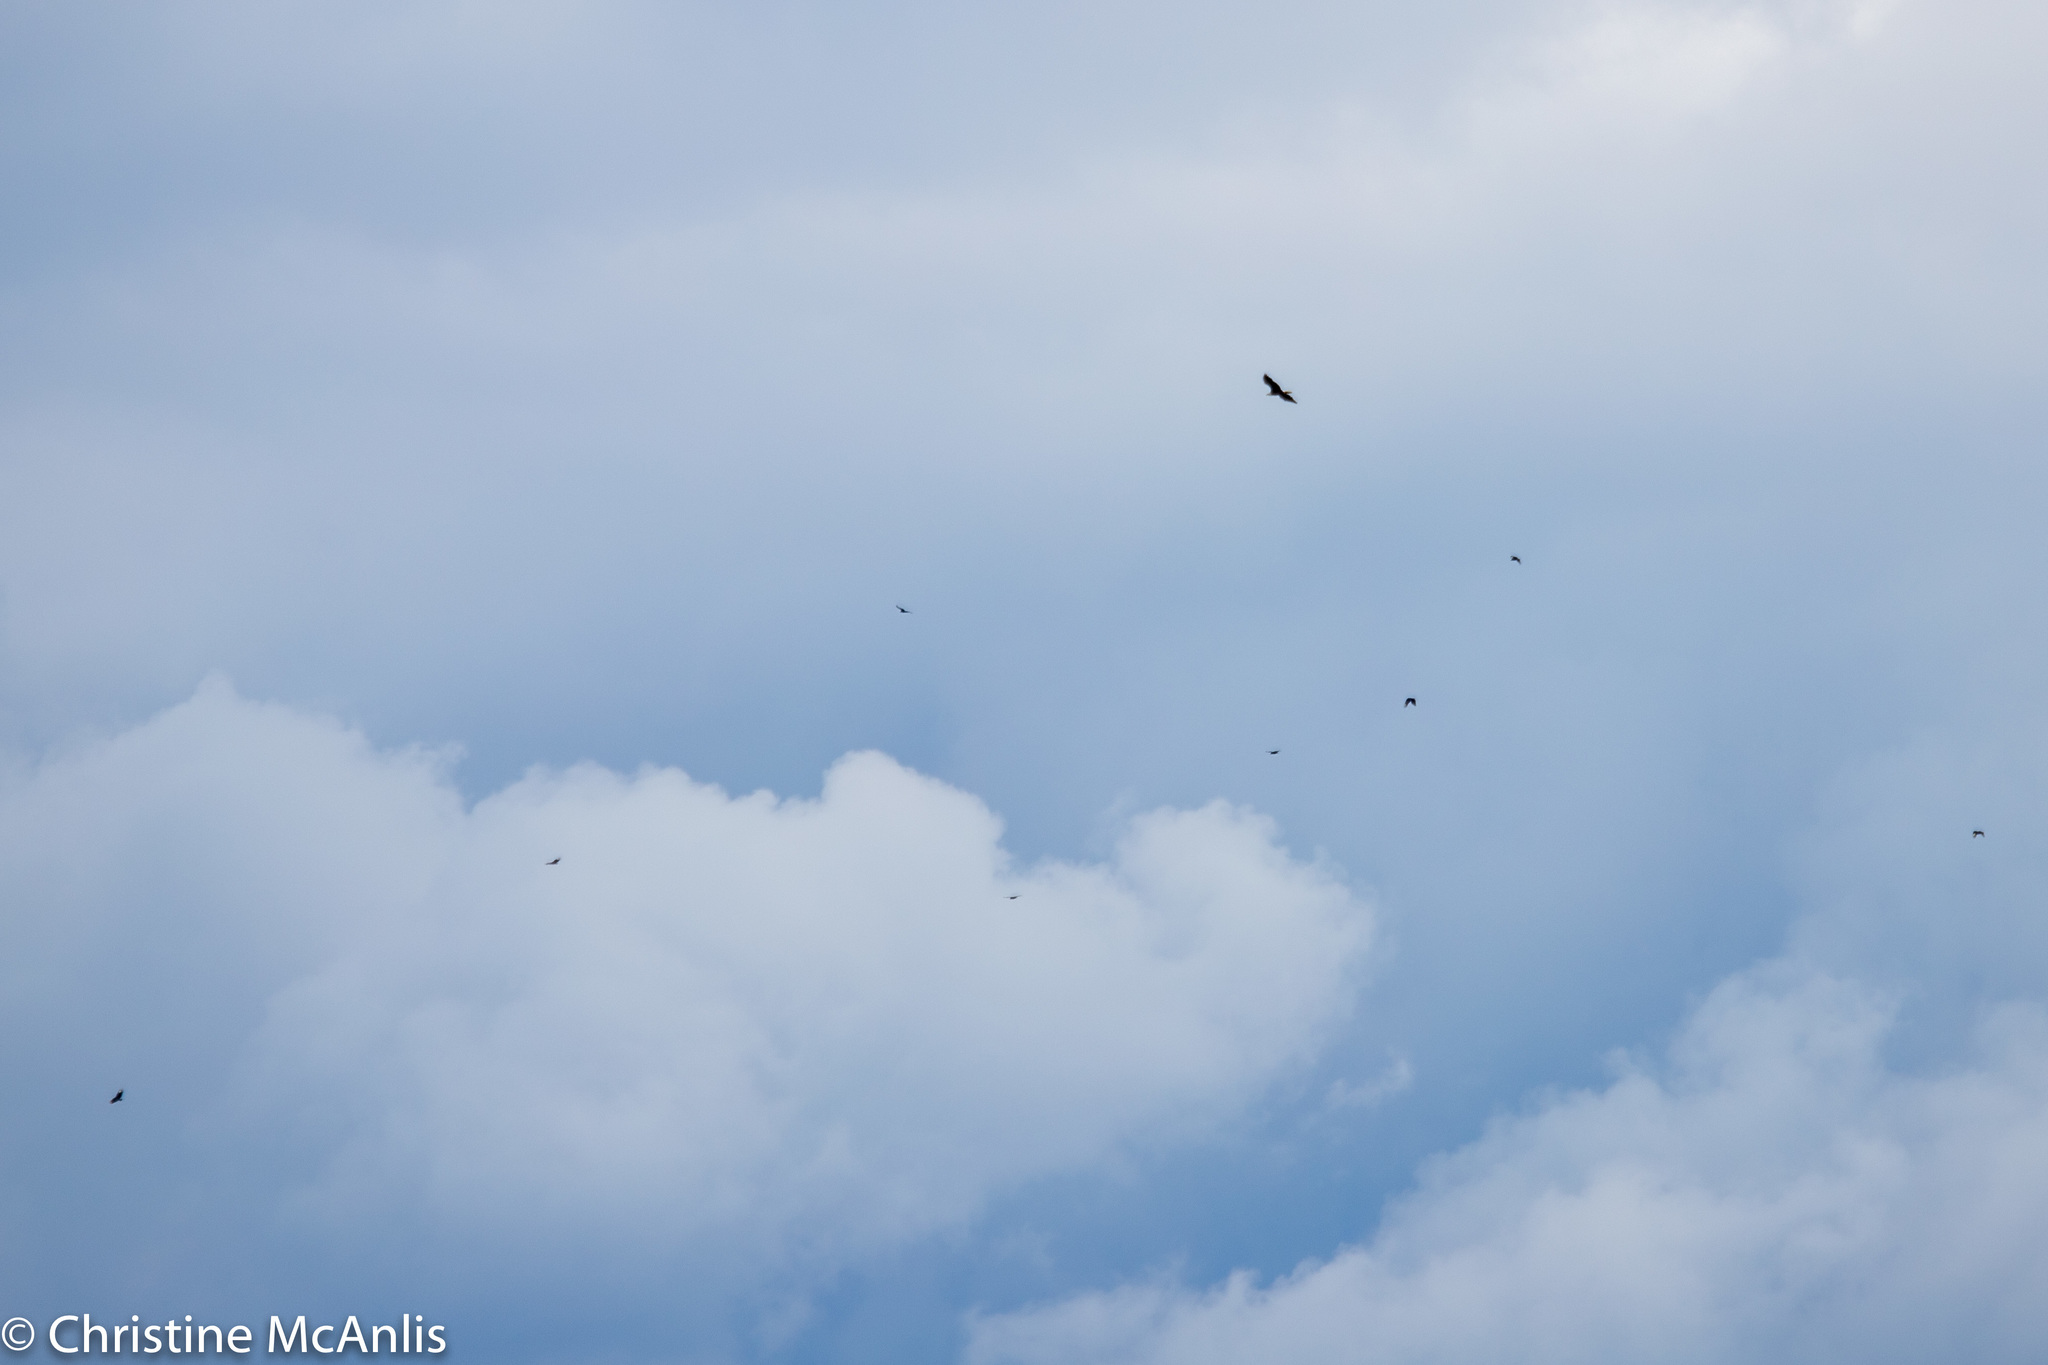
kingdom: Animalia
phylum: Chordata
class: Aves
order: Accipitriformes
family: Cathartidae
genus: Coragyps
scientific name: Coragyps atratus
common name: Black vulture
